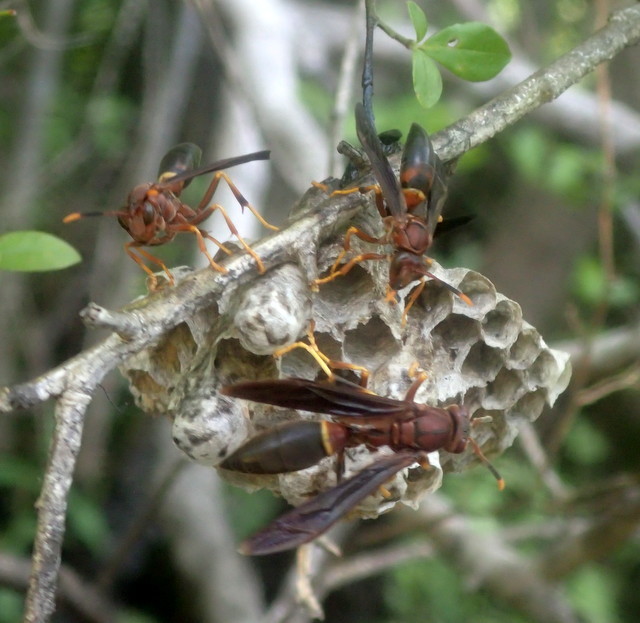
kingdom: Animalia
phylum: Arthropoda
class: Insecta
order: Hymenoptera
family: Eumenidae
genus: Polistes
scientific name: Polistes annularis
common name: Ringed paper wasp
